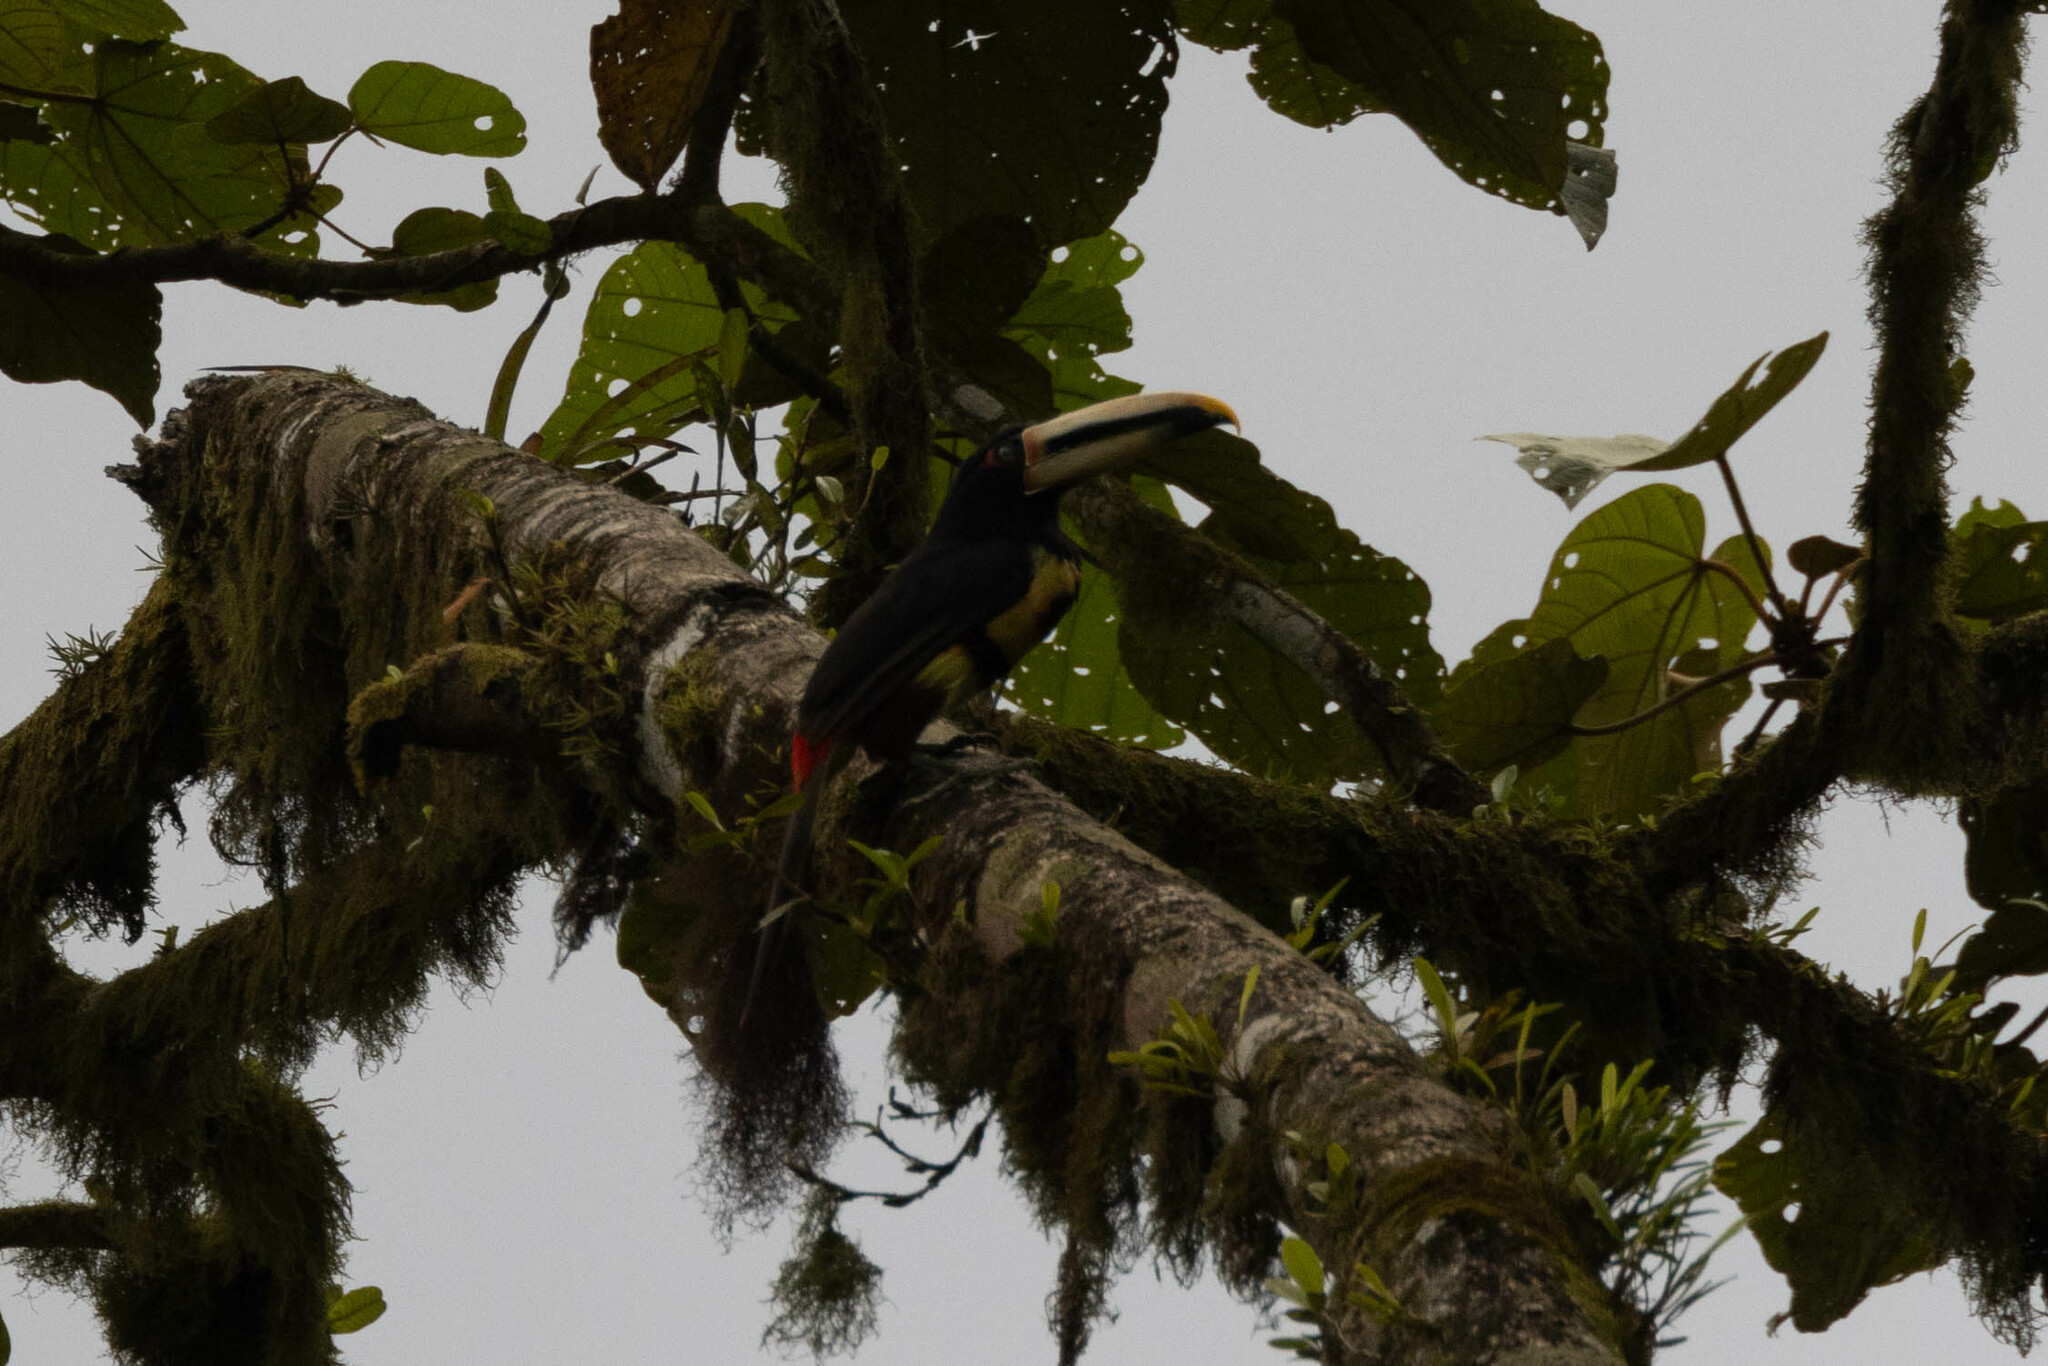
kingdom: Animalia
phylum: Chordata
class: Aves
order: Piciformes
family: Ramphastidae
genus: Pteroglossus
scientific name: Pteroglossus torquatus
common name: Collared aracari
